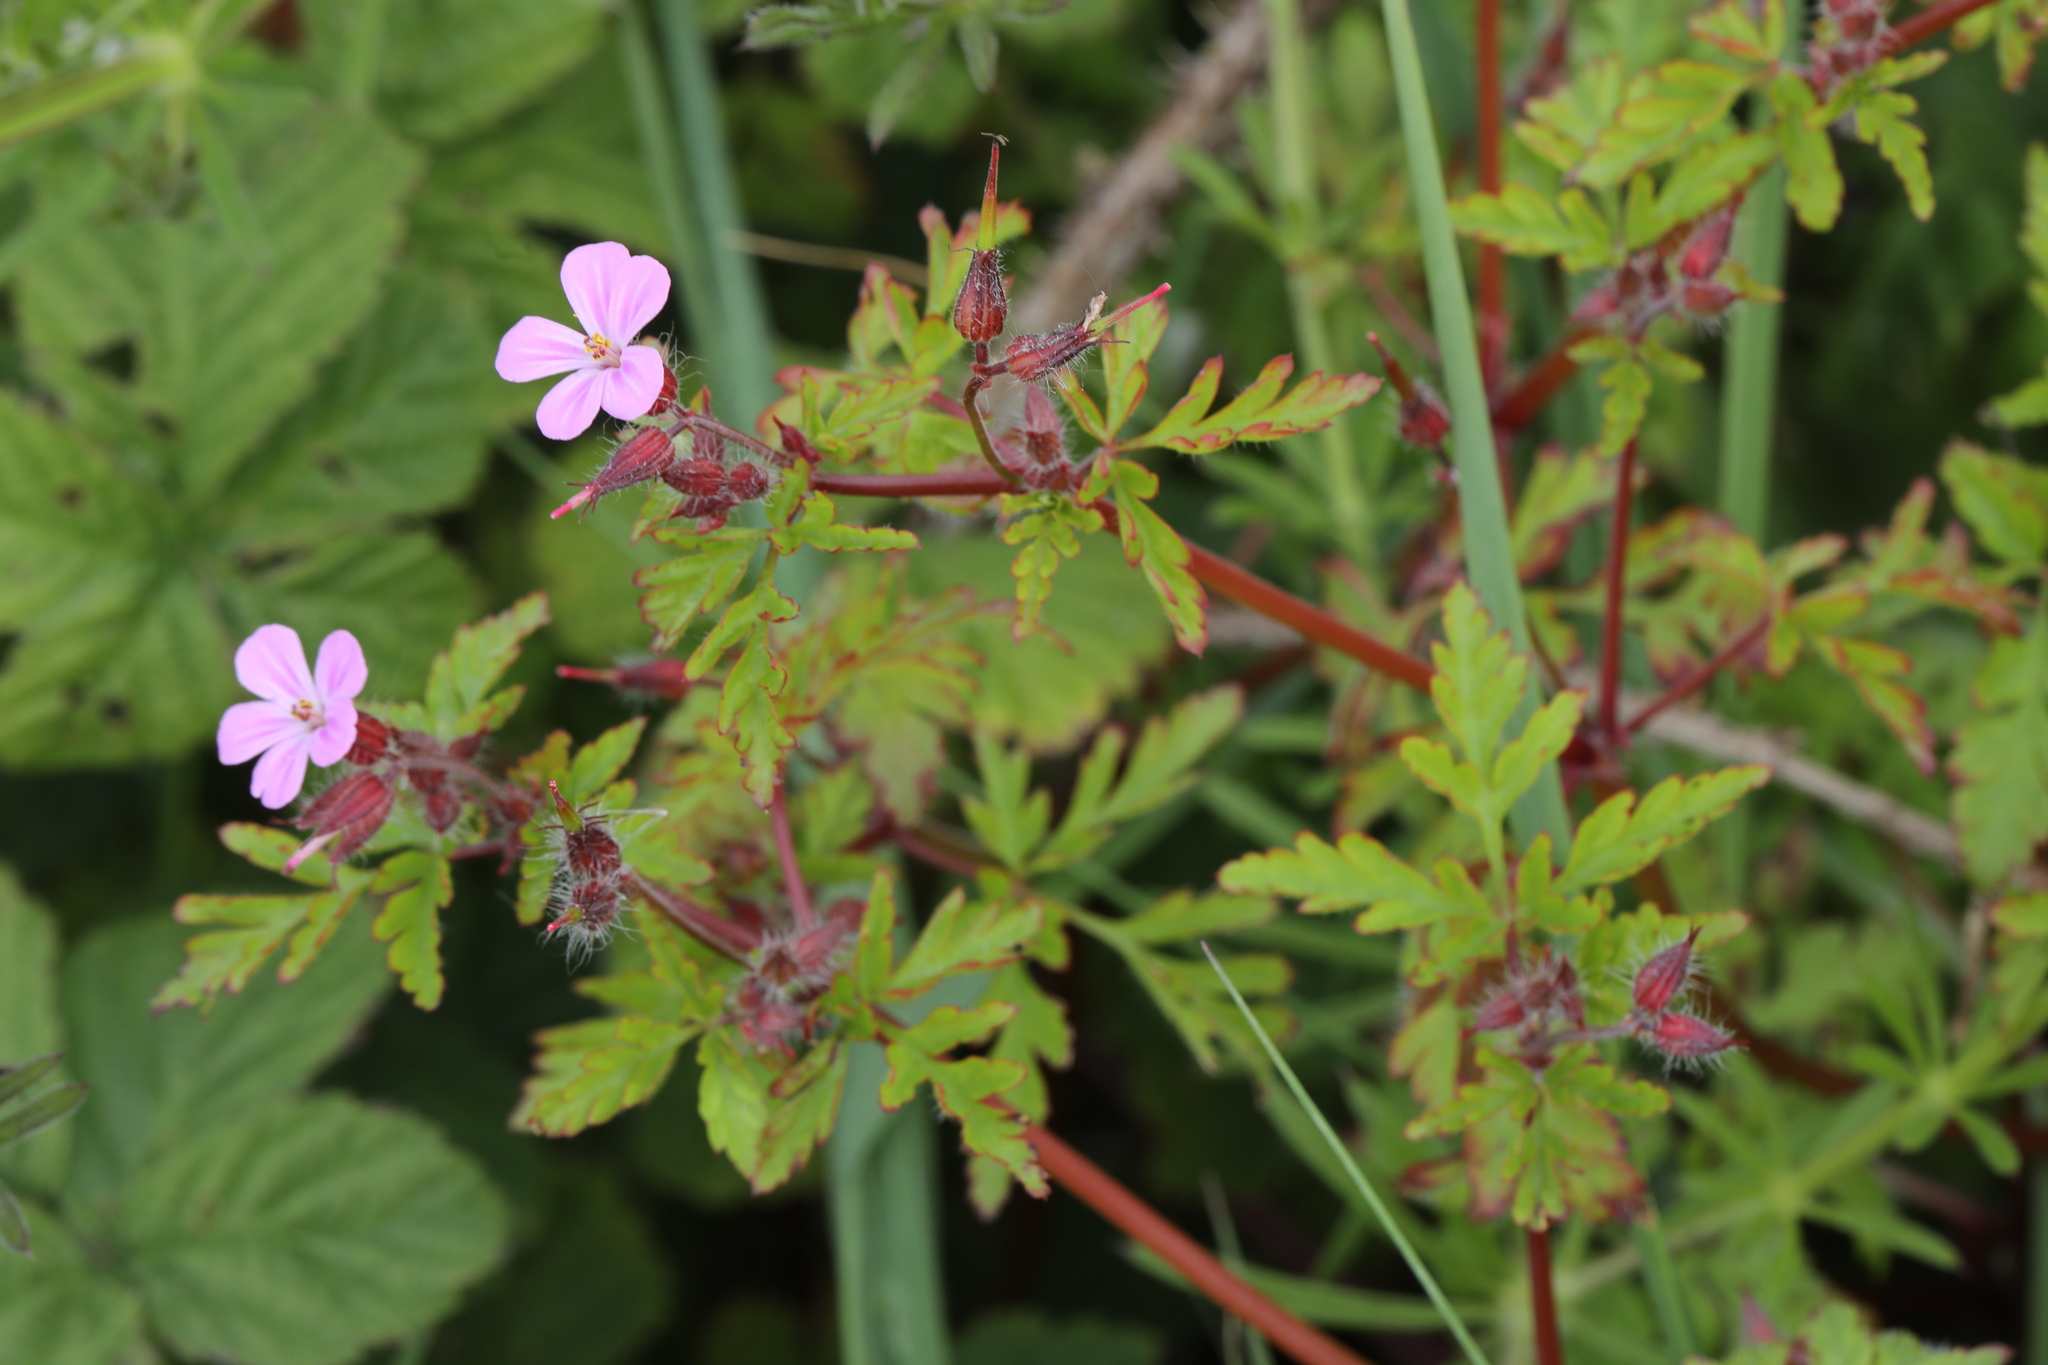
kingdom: Plantae
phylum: Tracheophyta
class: Magnoliopsida
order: Geraniales
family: Geraniaceae
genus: Geranium
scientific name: Geranium robertianum
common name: Herb-robert
